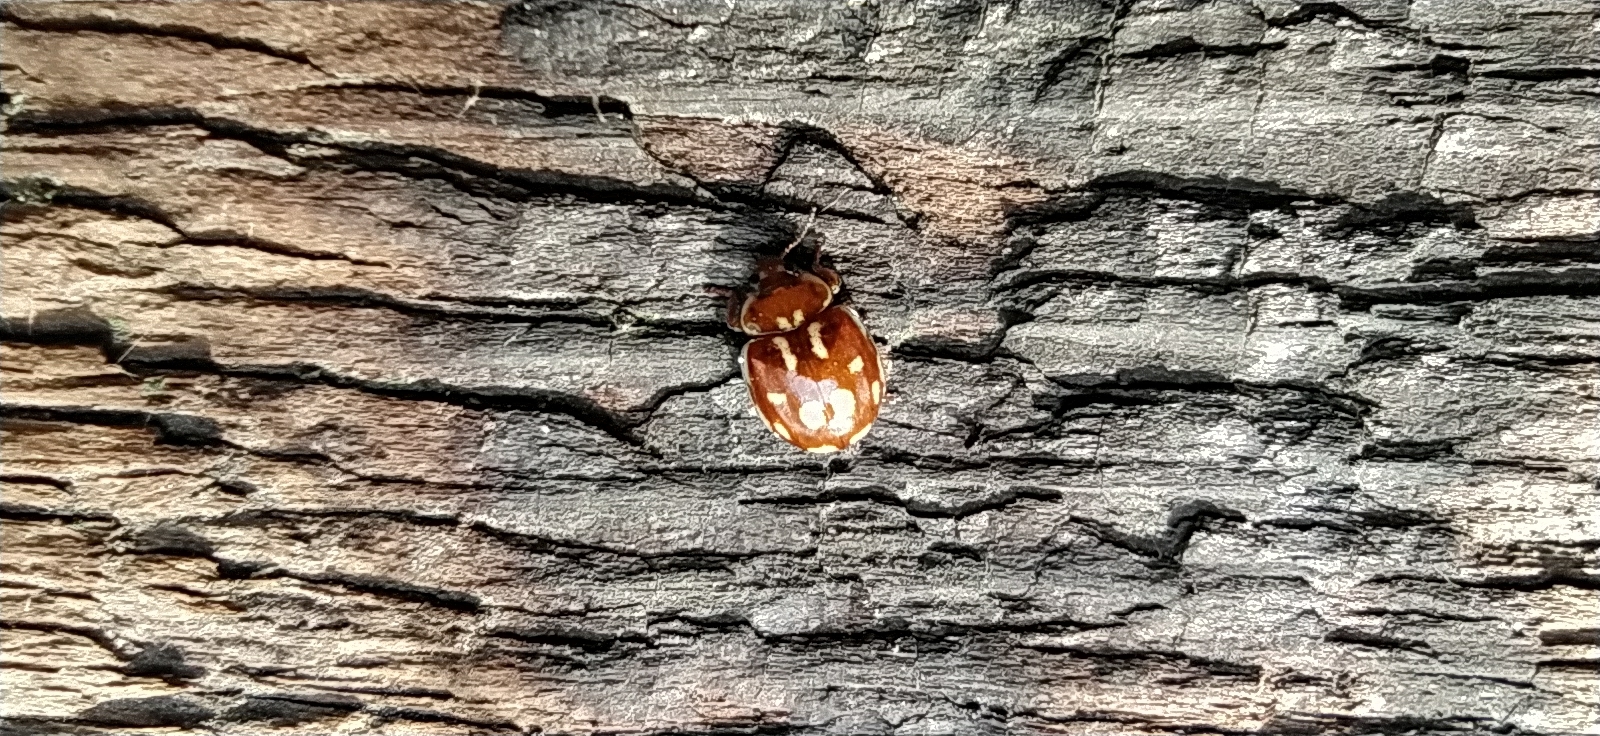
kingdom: Animalia
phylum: Arthropoda
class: Insecta
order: Coleoptera
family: Coccinellidae
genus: Myrrha
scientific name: Myrrha octodecimguttata
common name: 18-spot ladybird
